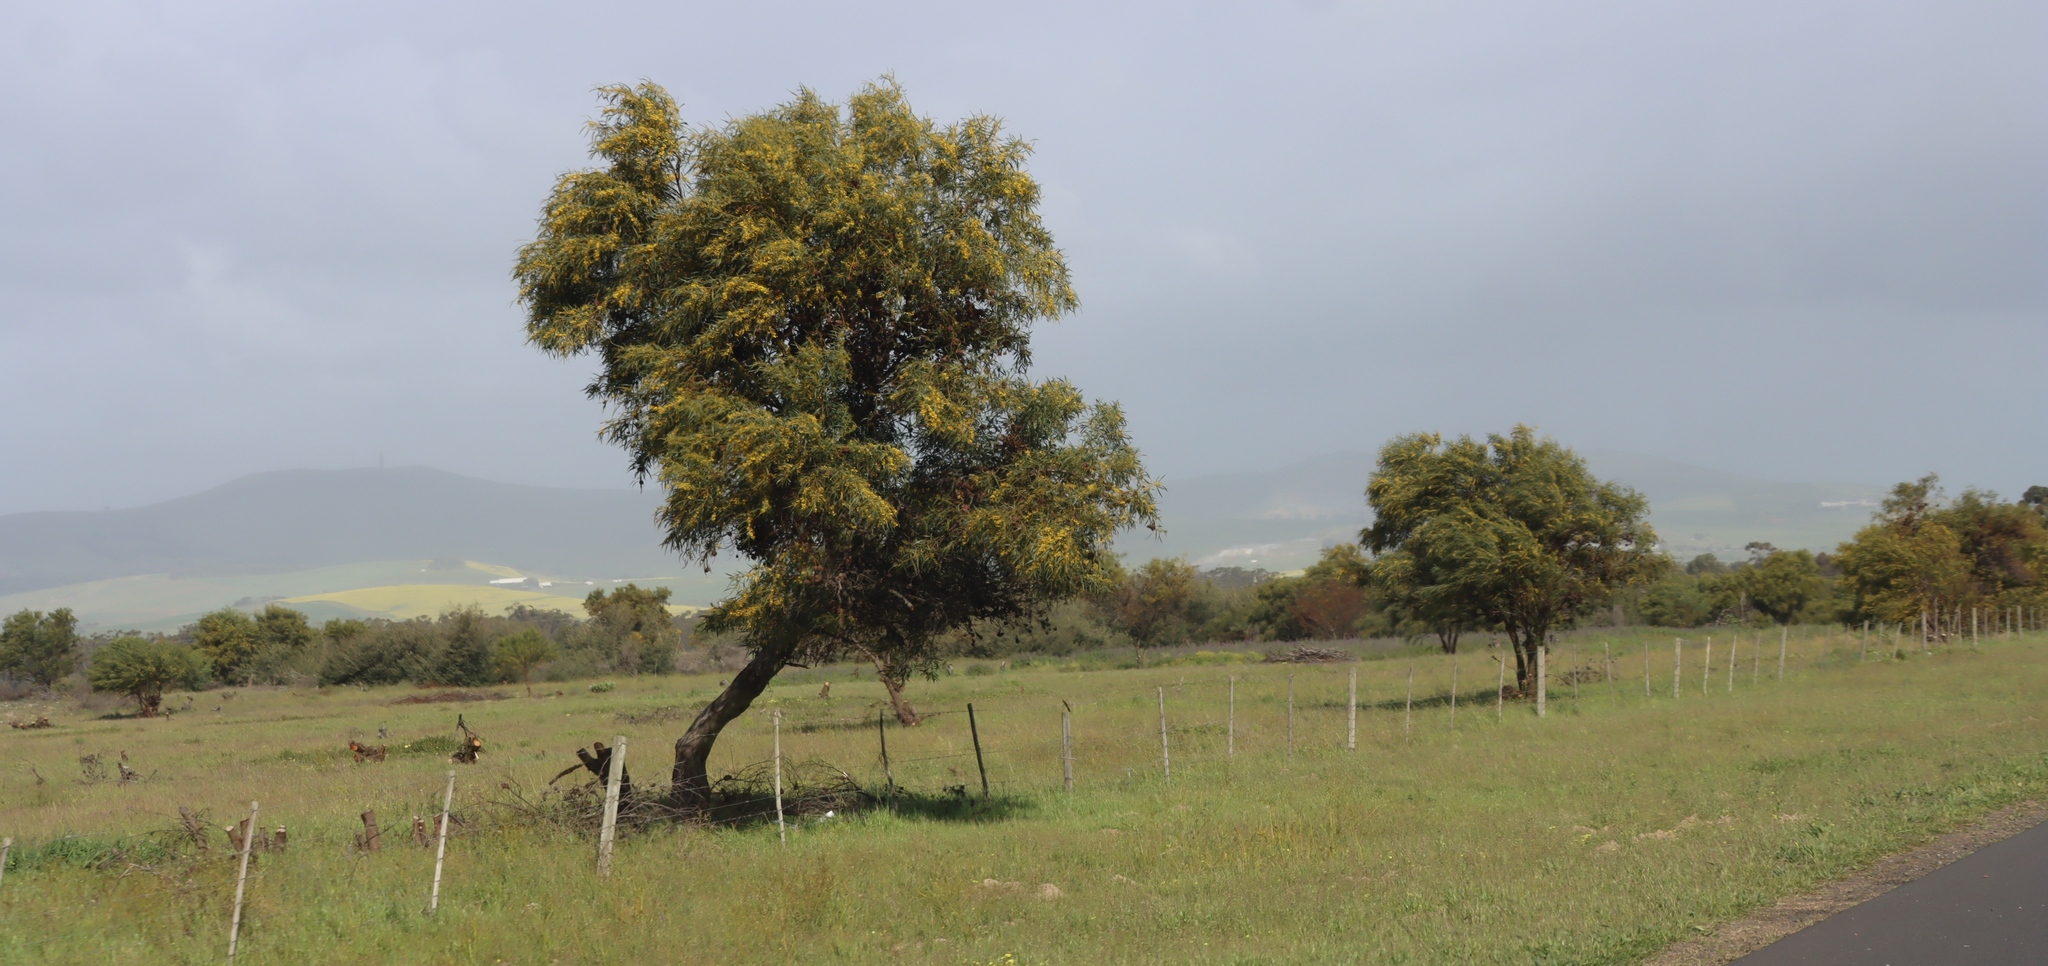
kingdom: Plantae
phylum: Tracheophyta
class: Magnoliopsida
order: Fabales
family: Fabaceae
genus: Acacia
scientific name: Acacia saligna
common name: Orange wattle
